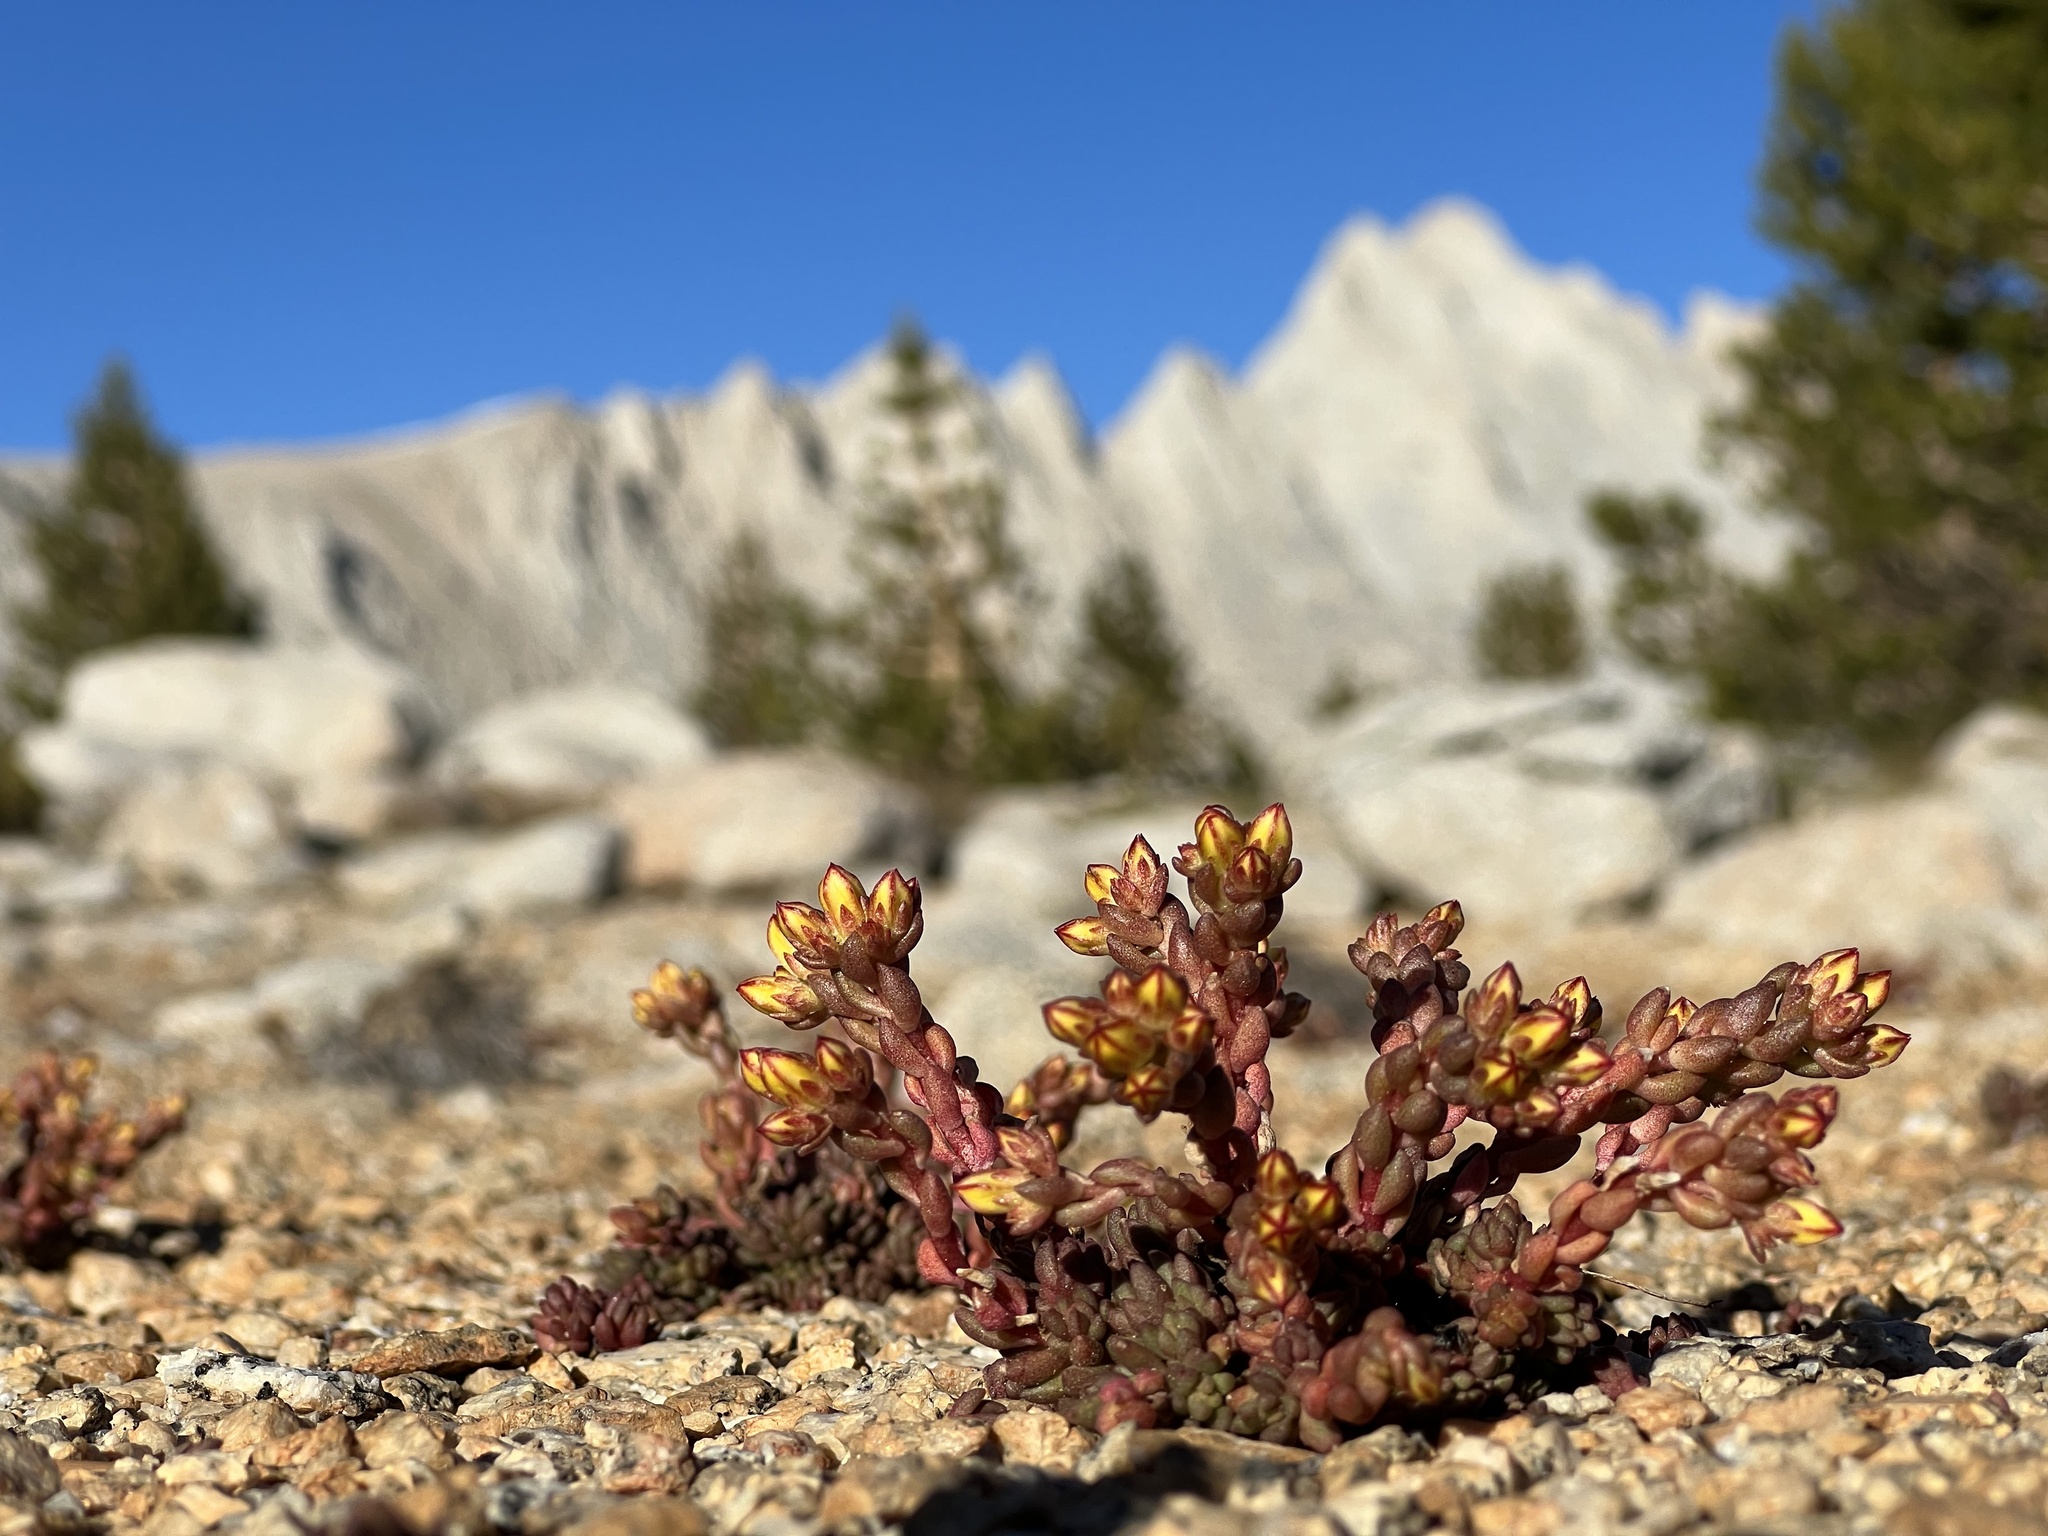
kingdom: Plantae
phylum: Tracheophyta
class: Magnoliopsida
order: Saxifragales
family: Crassulaceae
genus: Sedum
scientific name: Sedum lanceolatum
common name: Common stonecrop
